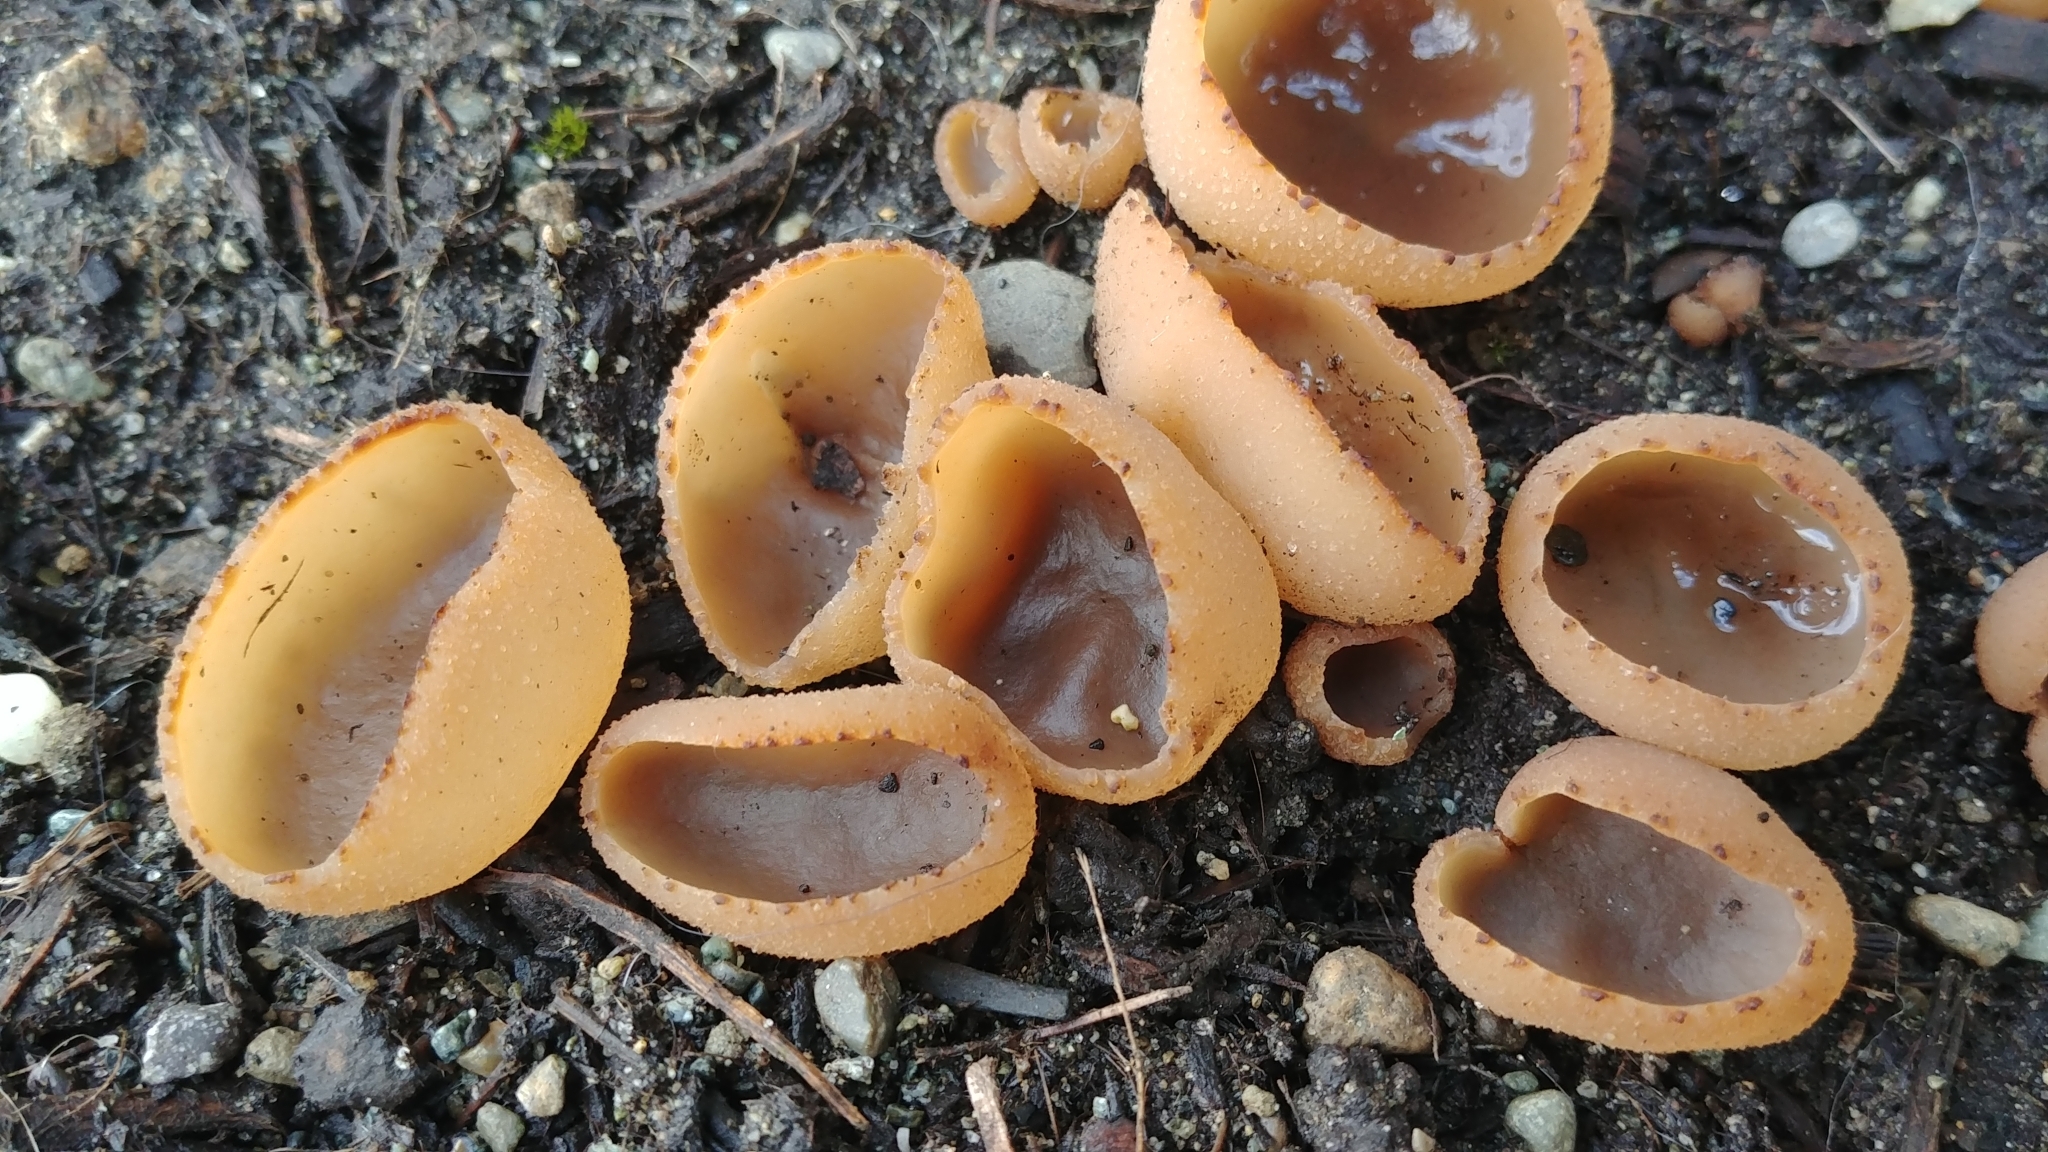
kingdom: Fungi
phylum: Ascomycota
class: Pezizomycetes
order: Pezizales
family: Pezizaceae
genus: Peziza
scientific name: Peziza varia
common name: Layered cup
